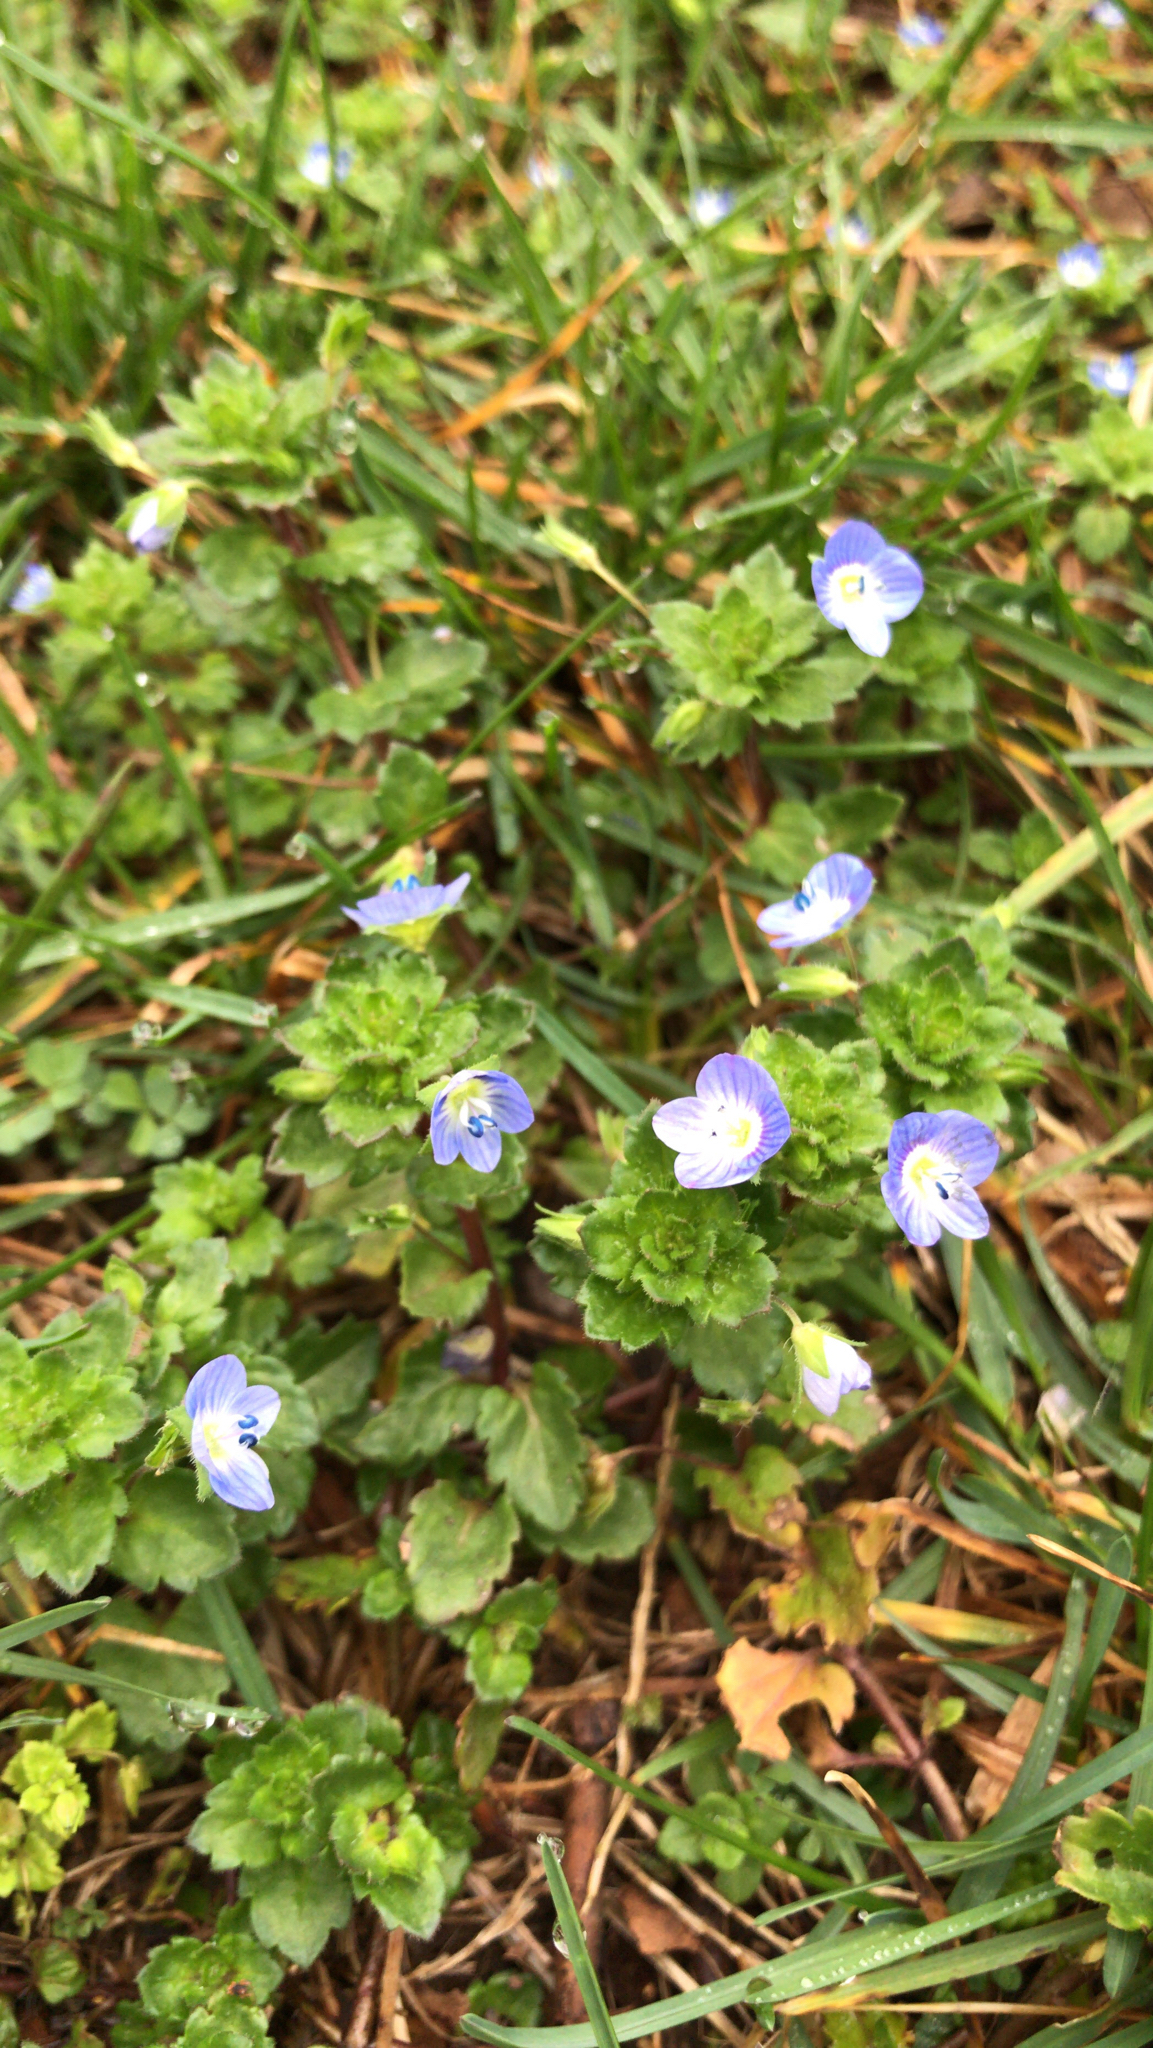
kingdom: Plantae
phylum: Tracheophyta
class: Magnoliopsida
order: Lamiales
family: Plantaginaceae
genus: Veronica
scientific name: Veronica persica
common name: Common field-speedwell
